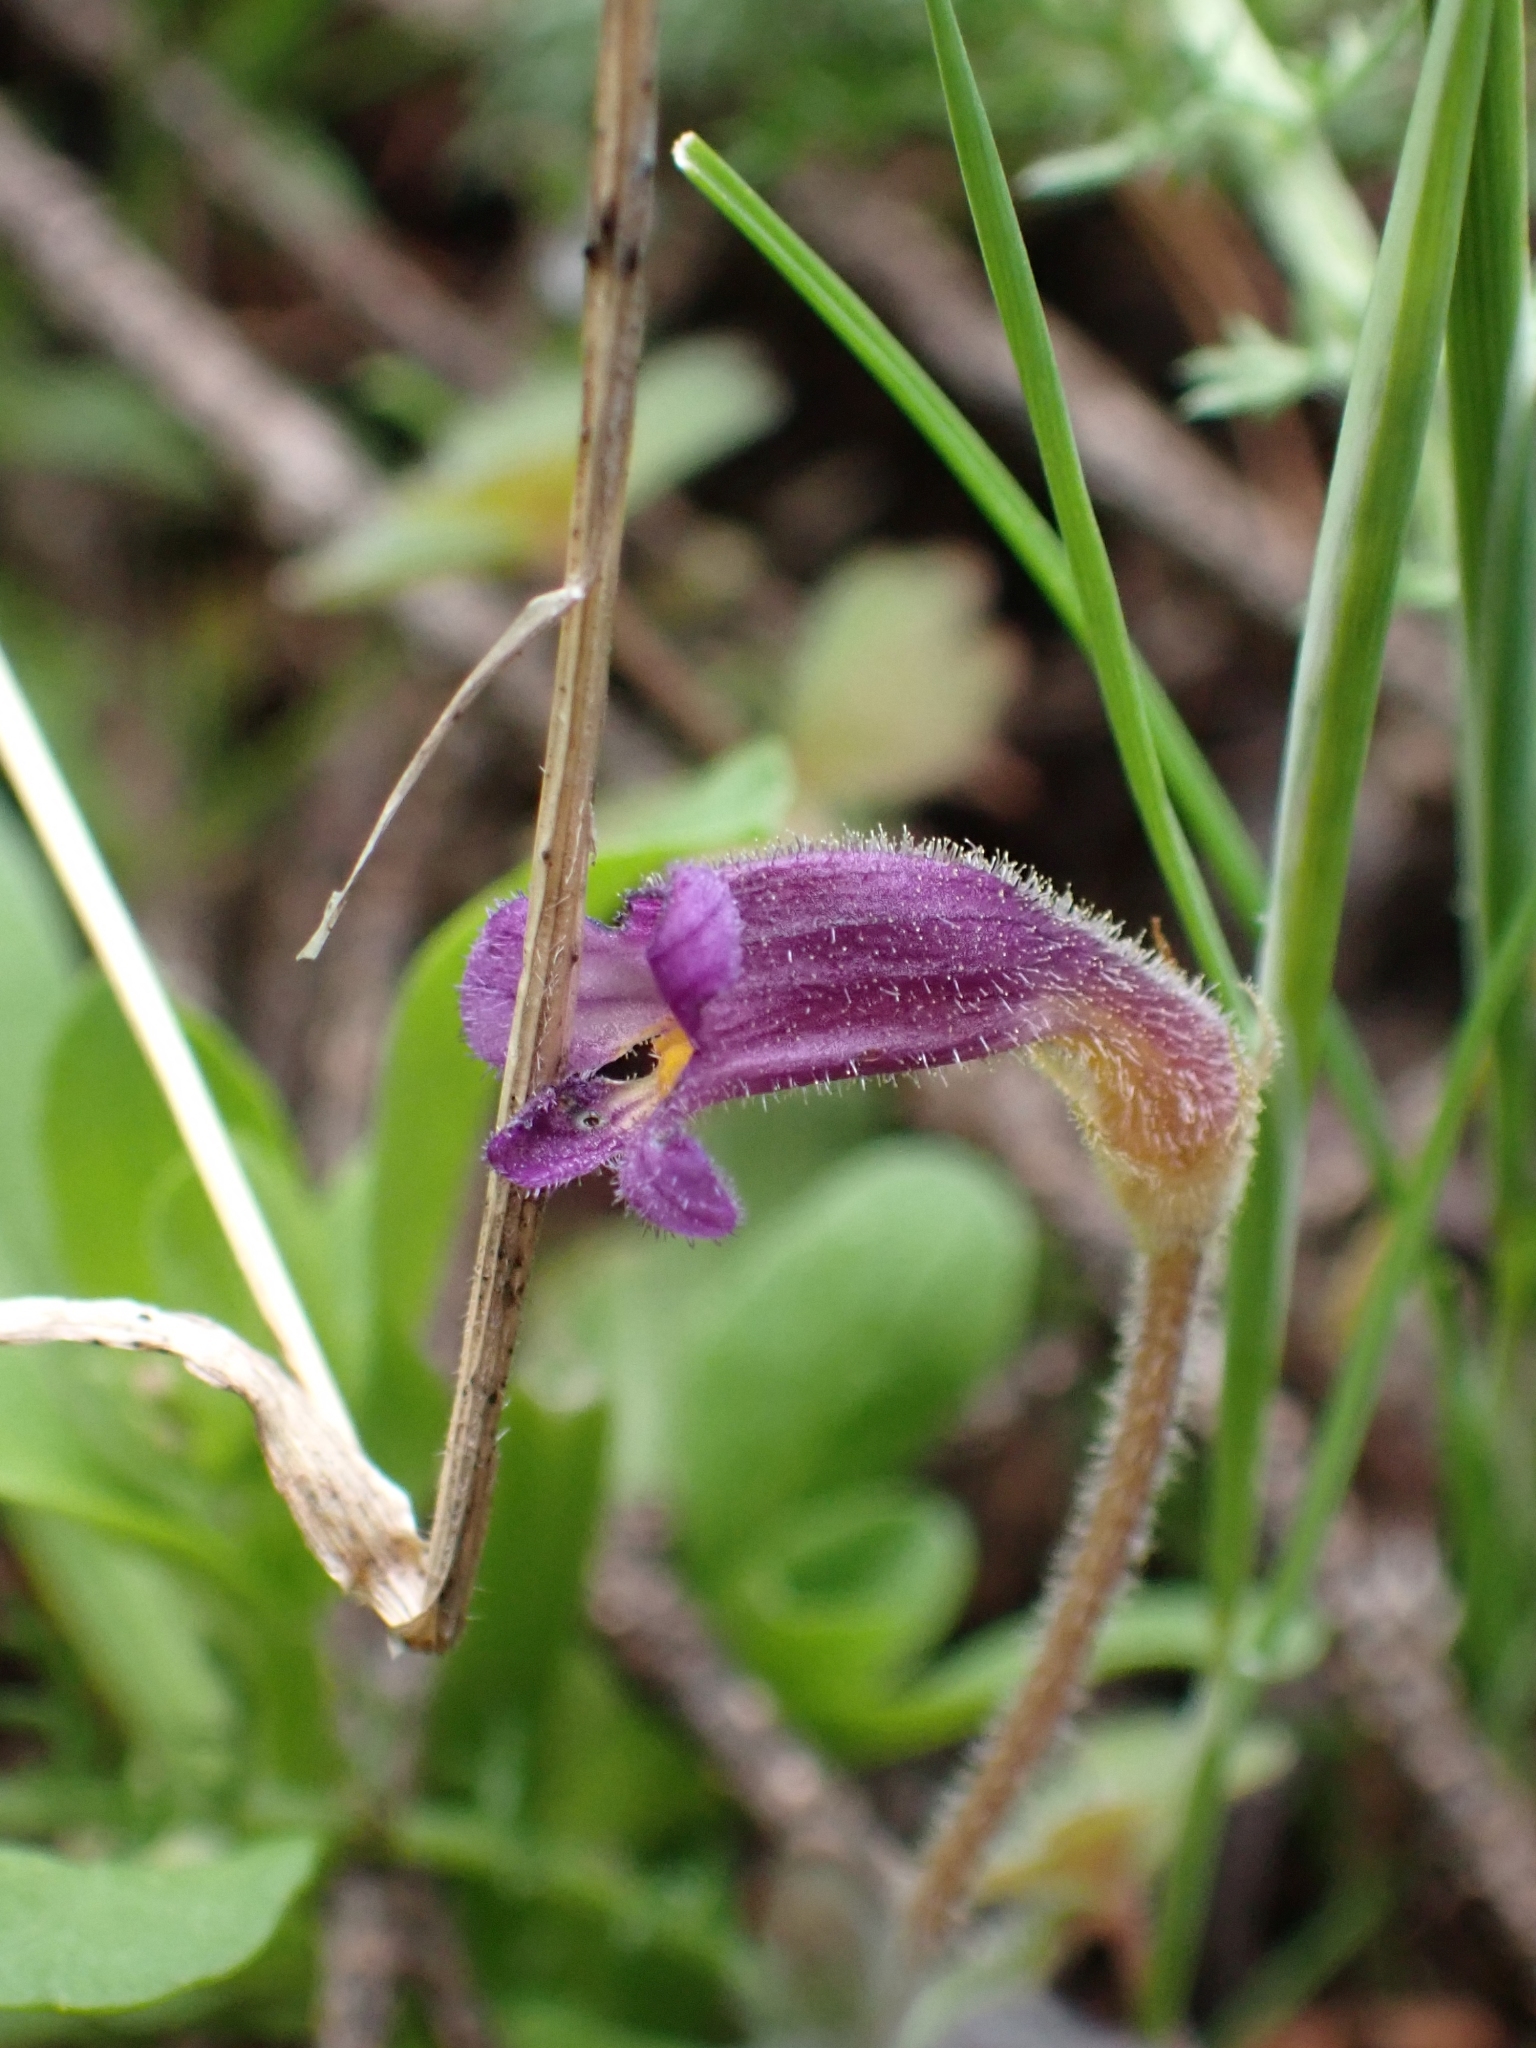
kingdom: Plantae
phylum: Tracheophyta
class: Magnoliopsida
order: Lamiales
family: Orobanchaceae
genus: Aphyllon
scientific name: Aphyllon uniflorum
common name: One-flowered broomrape
